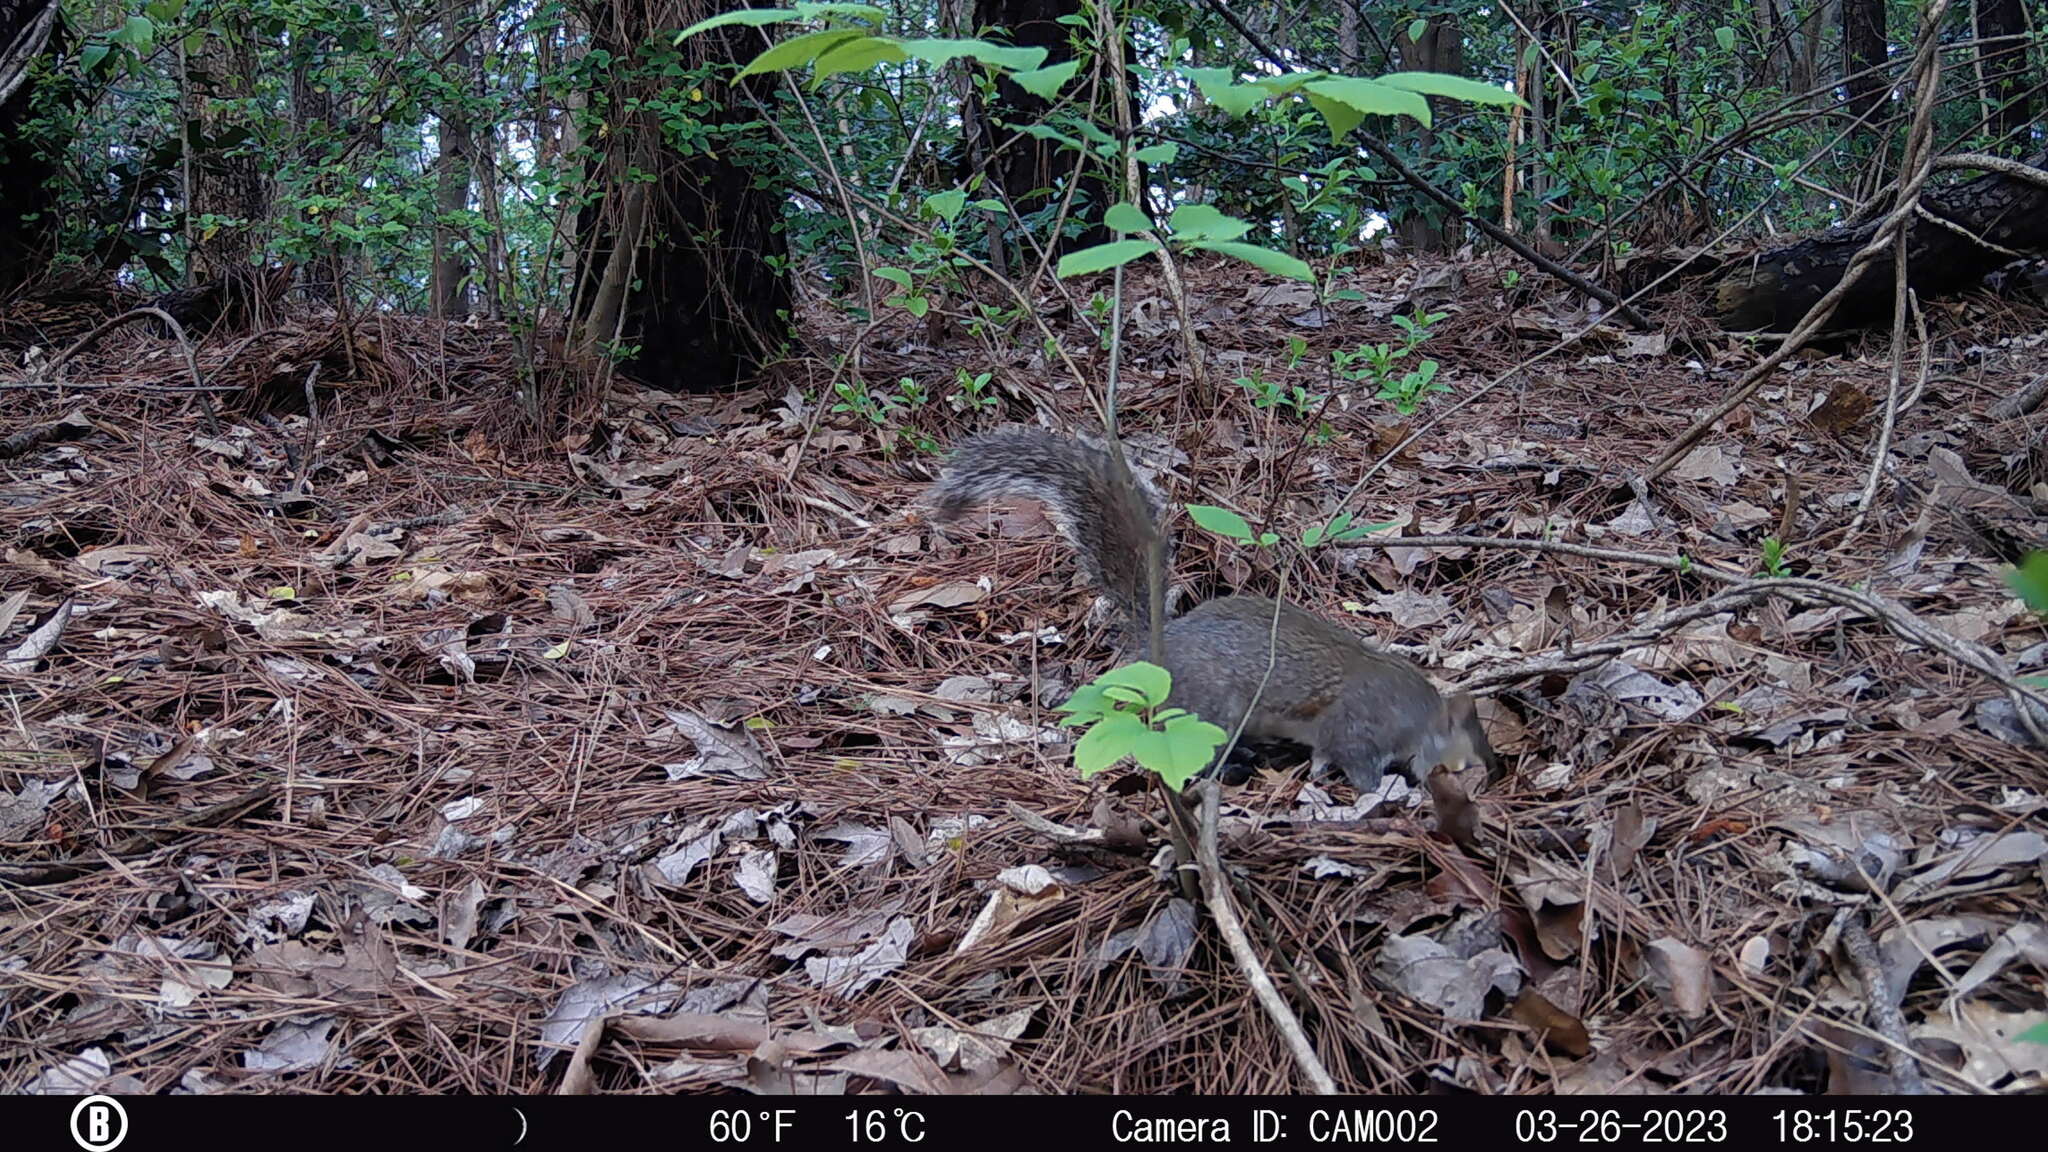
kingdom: Animalia
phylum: Chordata
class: Mammalia
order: Rodentia
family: Sciuridae
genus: Sciurus
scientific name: Sciurus carolinensis
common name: Eastern gray squirrel
